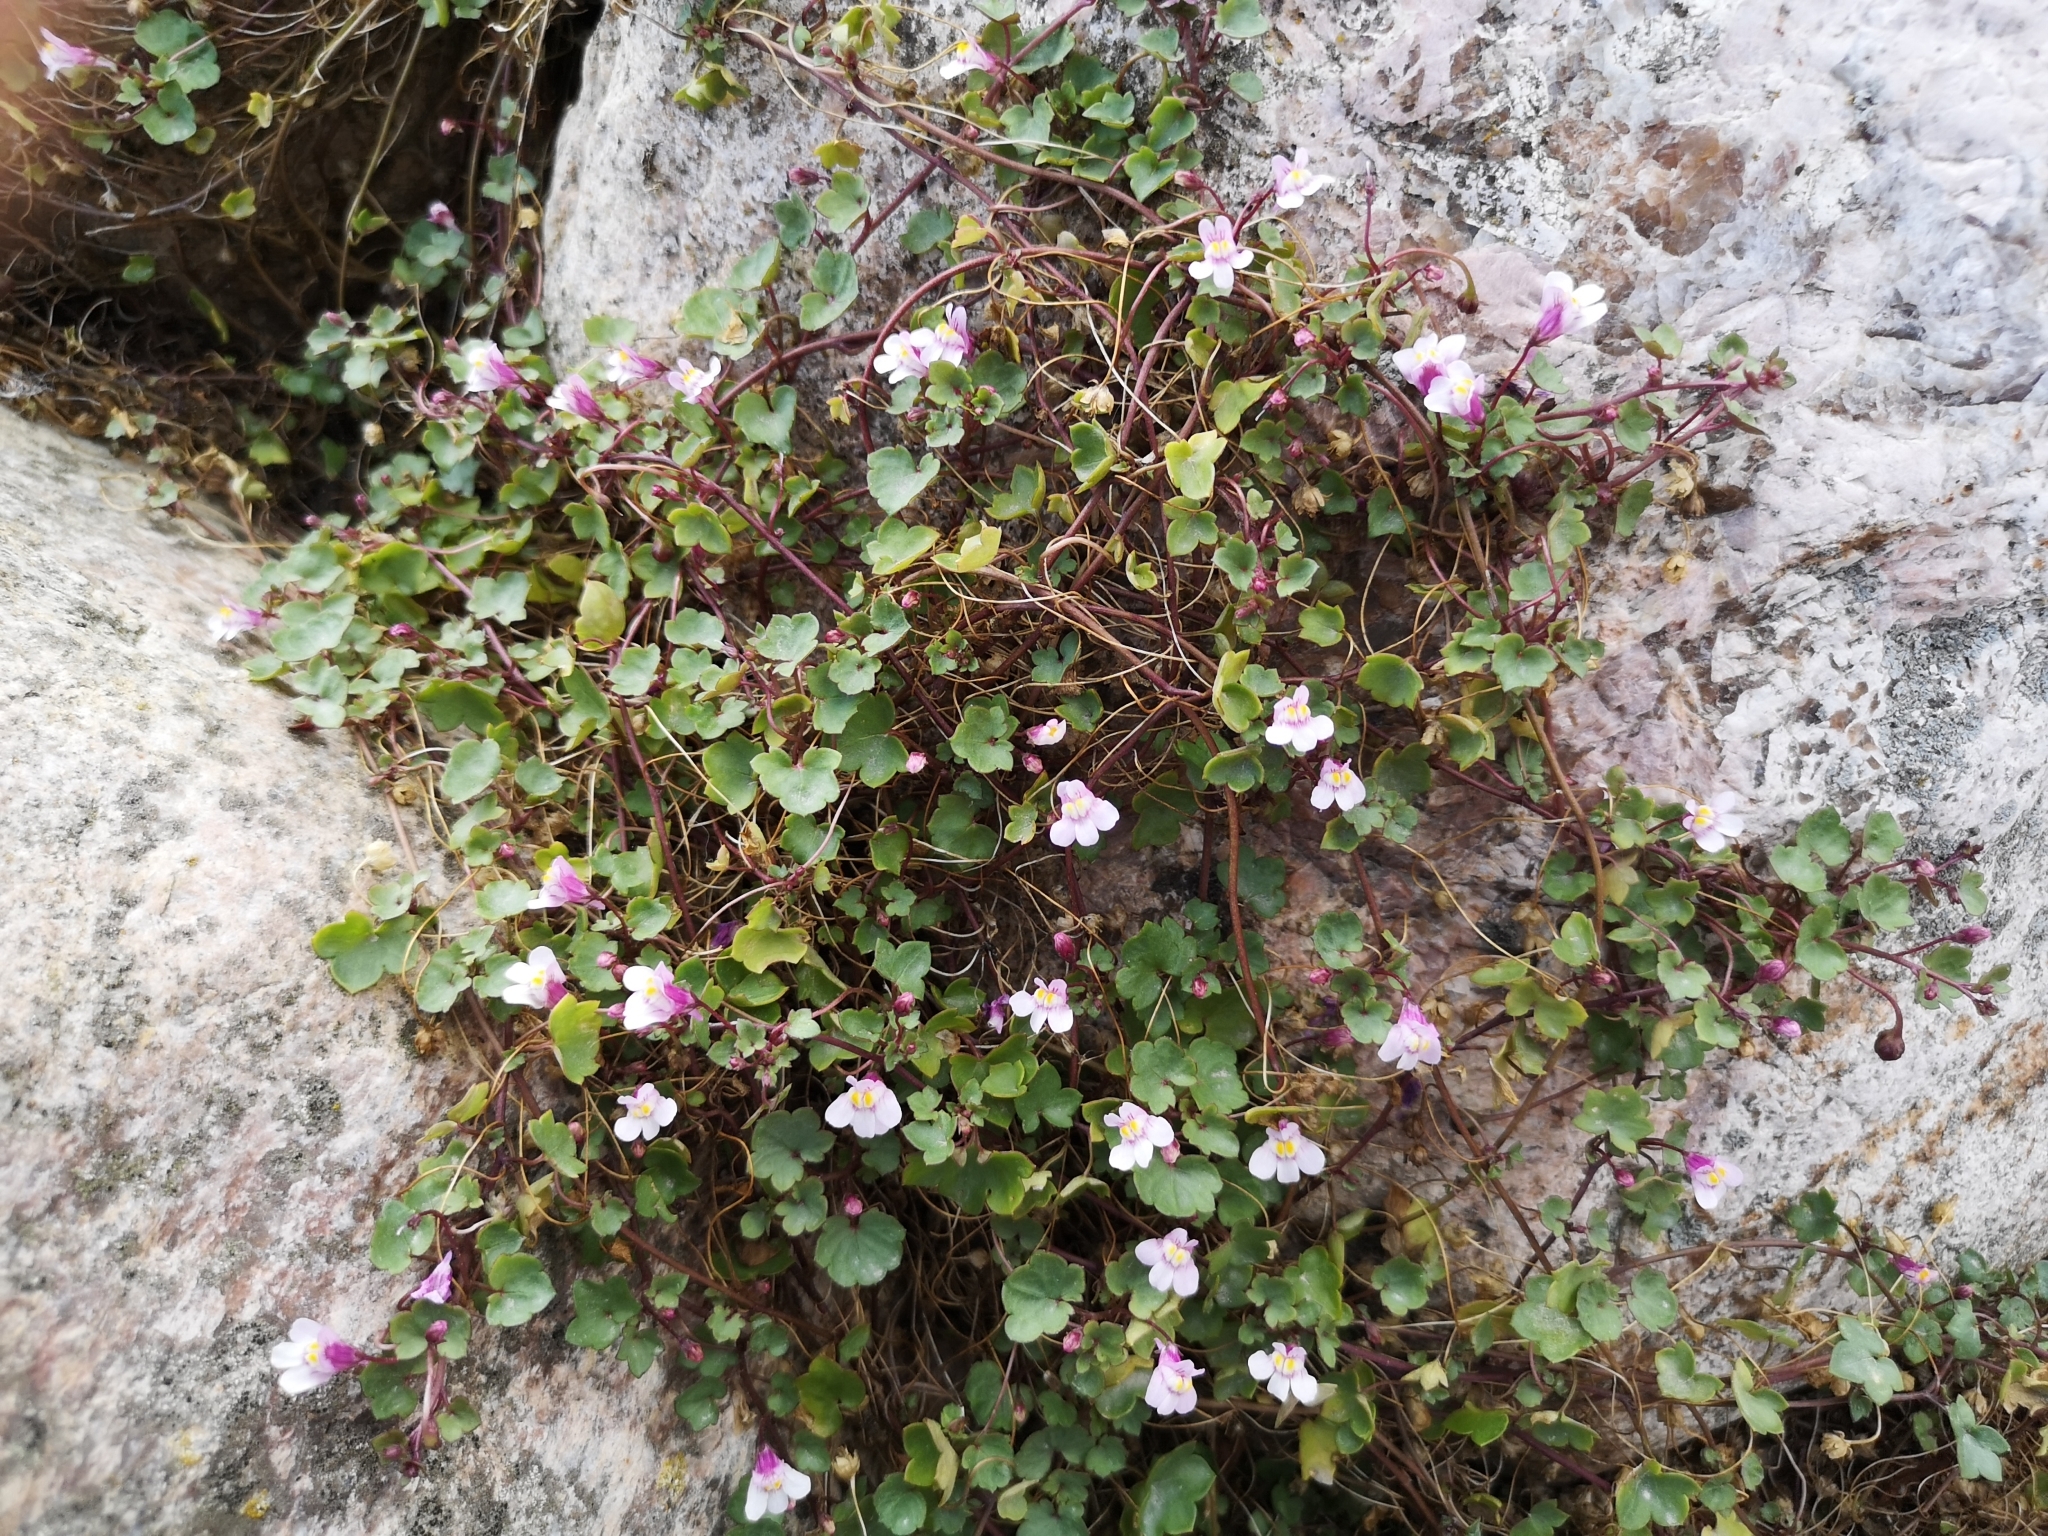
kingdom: Plantae
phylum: Tracheophyta
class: Magnoliopsida
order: Lamiales
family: Plantaginaceae
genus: Cymbalaria
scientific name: Cymbalaria muralis
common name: Ivy-leaved toadflax
